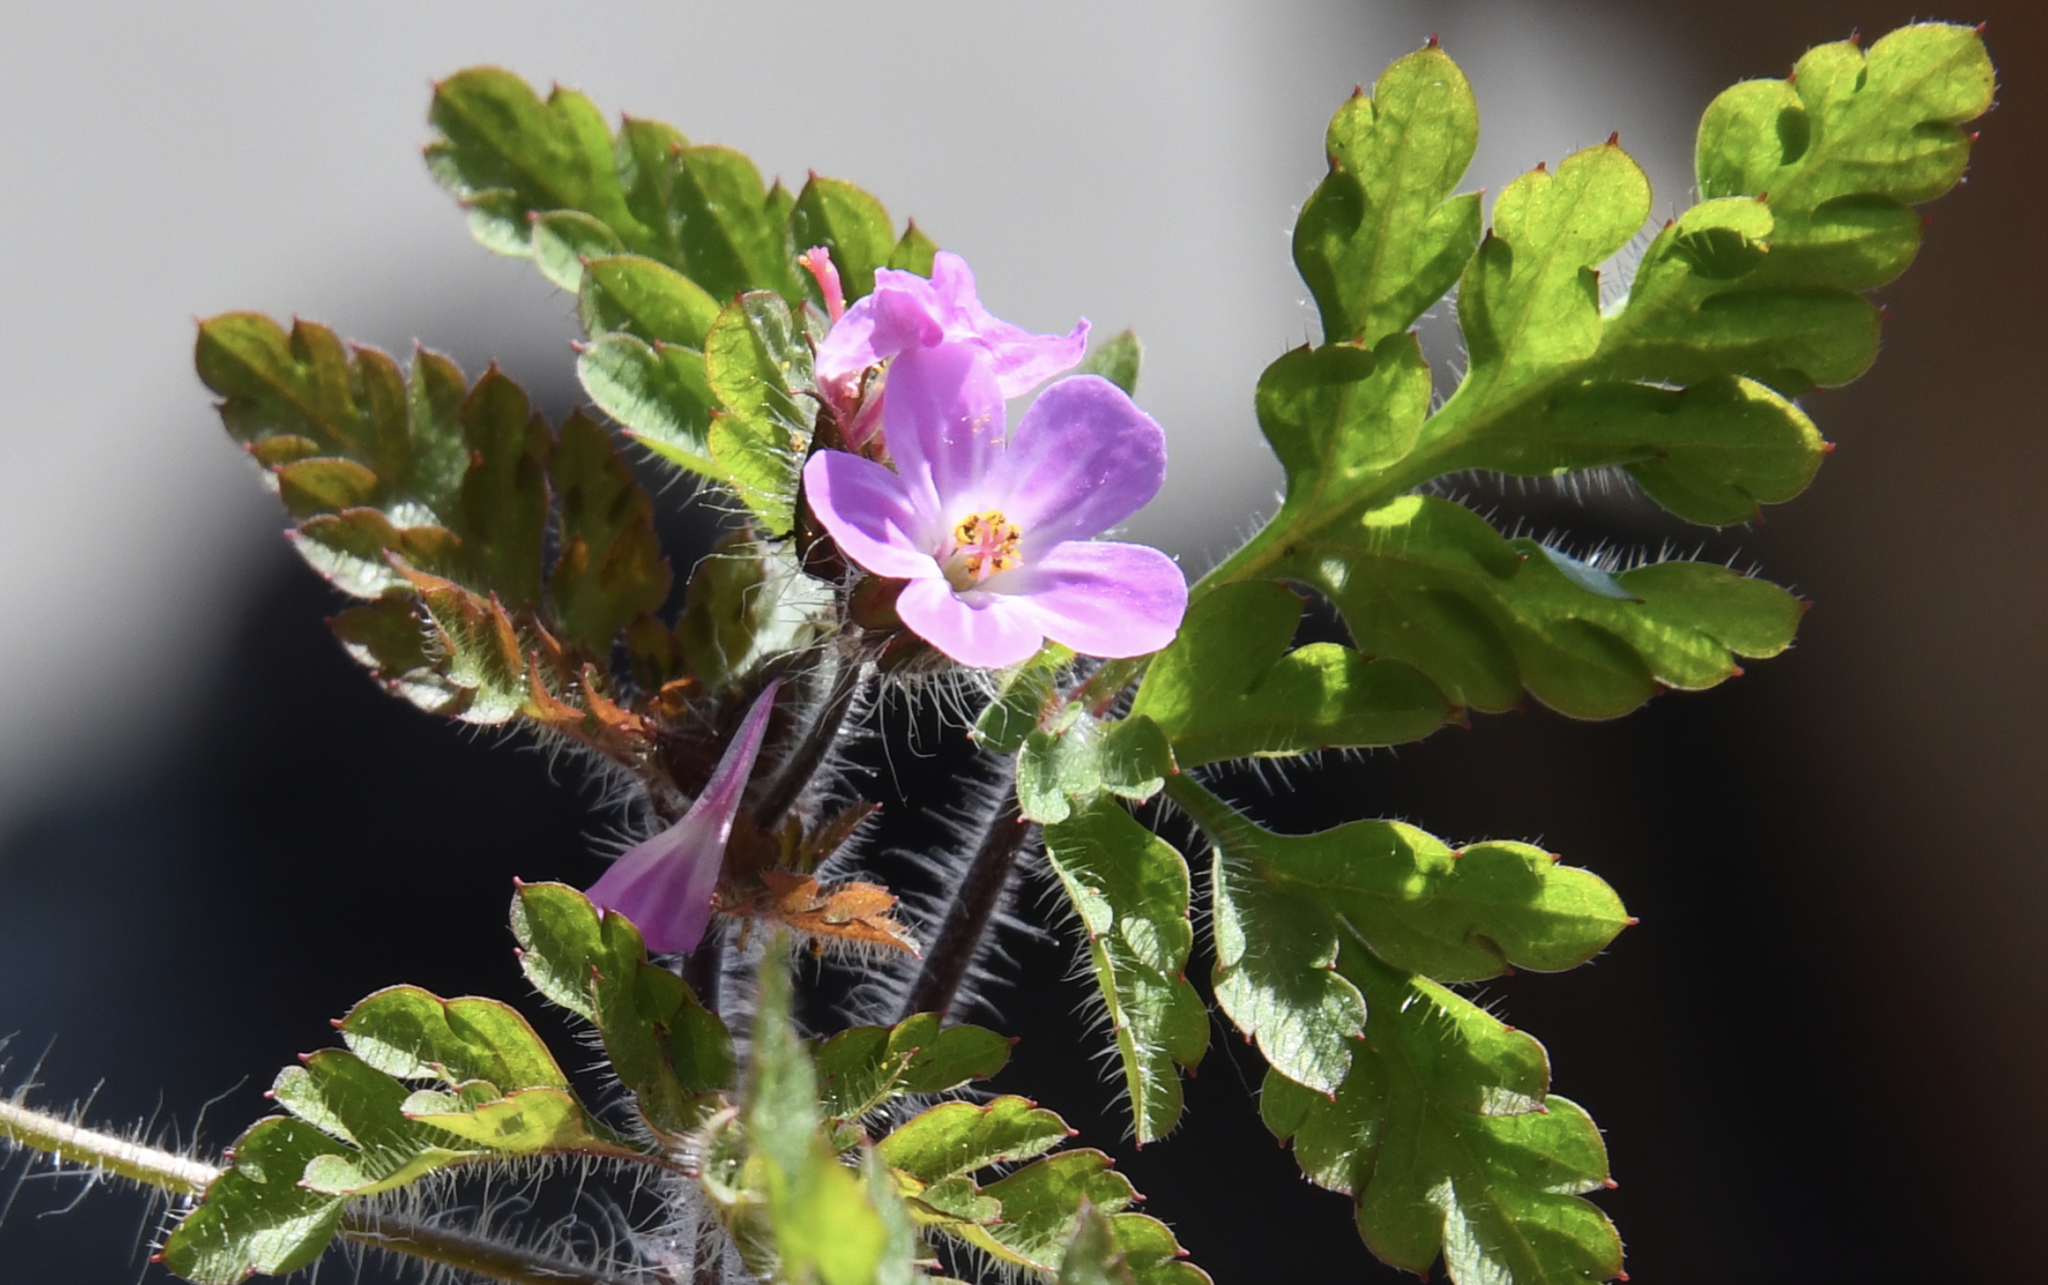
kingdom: Plantae
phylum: Tracheophyta
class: Magnoliopsida
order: Geraniales
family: Geraniaceae
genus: Geranium
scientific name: Geranium robertianum
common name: Herb-robert
